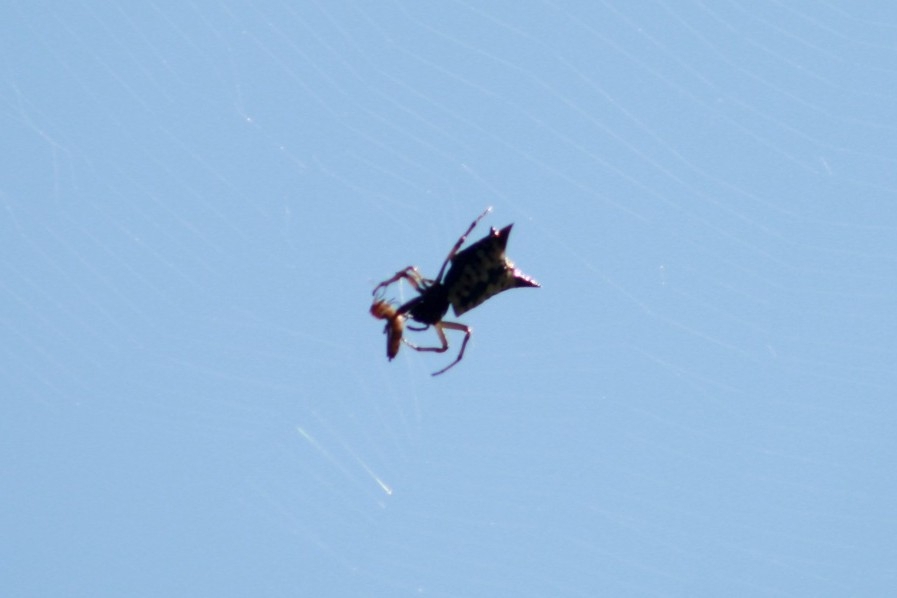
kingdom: Animalia
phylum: Arthropoda
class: Arachnida
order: Araneae
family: Araneidae
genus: Micrathena
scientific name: Micrathena saccata
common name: Orb weavers
